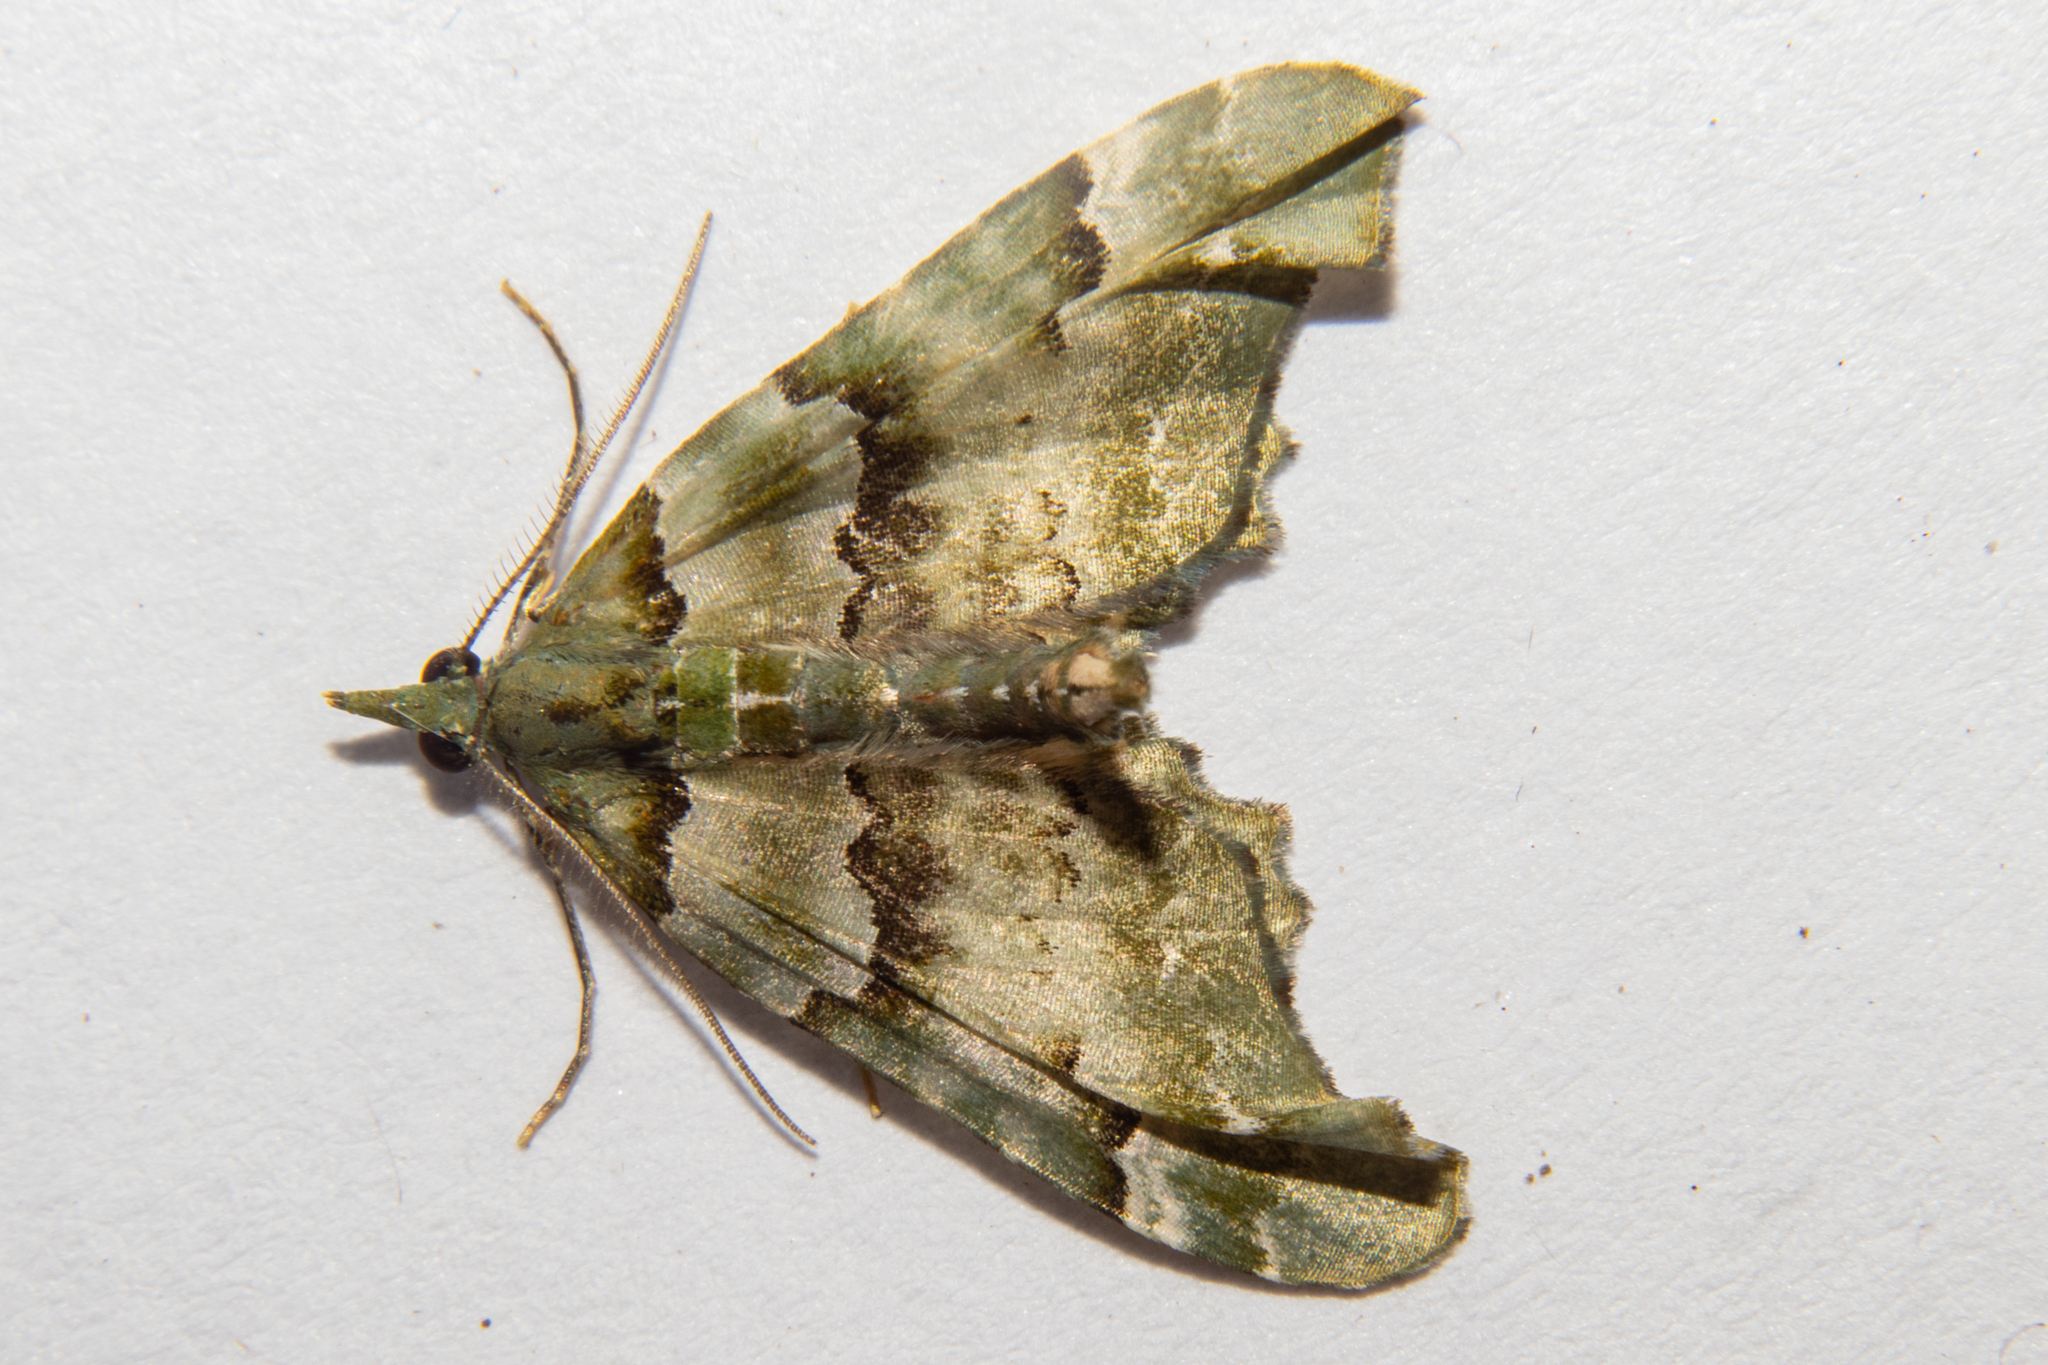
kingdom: Animalia
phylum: Arthropoda
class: Insecta
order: Lepidoptera
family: Geometridae
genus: Elvia
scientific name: Elvia glaucata
